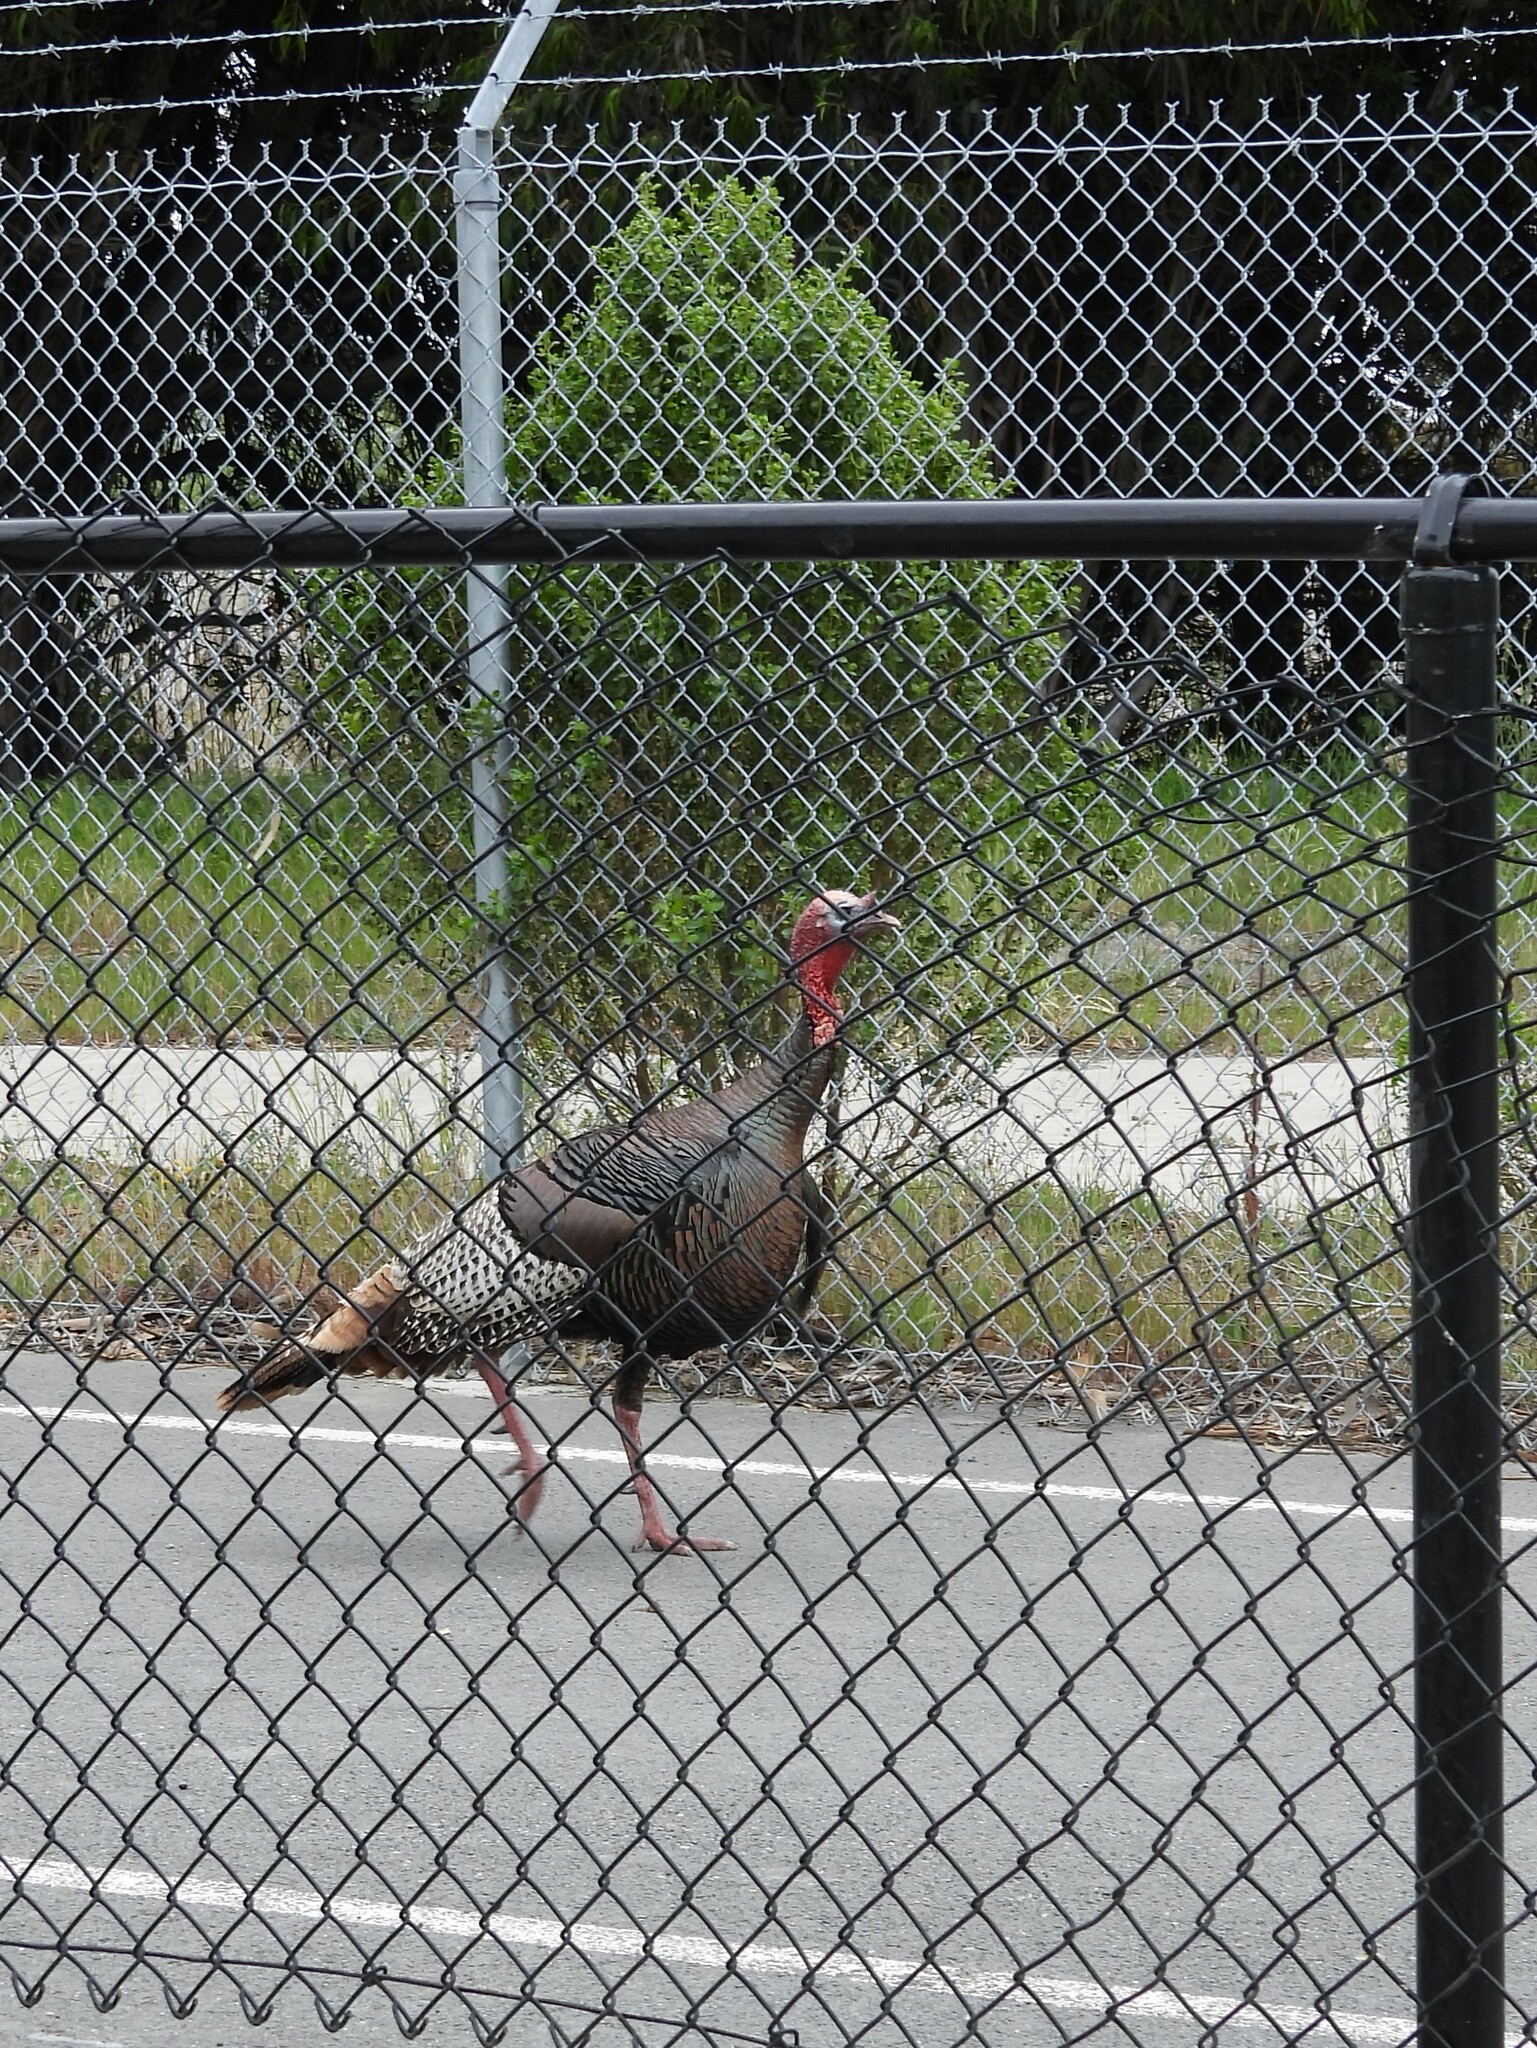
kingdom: Animalia
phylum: Chordata
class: Aves
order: Galliformes
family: Phasianidae
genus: Meleagris
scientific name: Meleagris gallopavo
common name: Wild turkey
